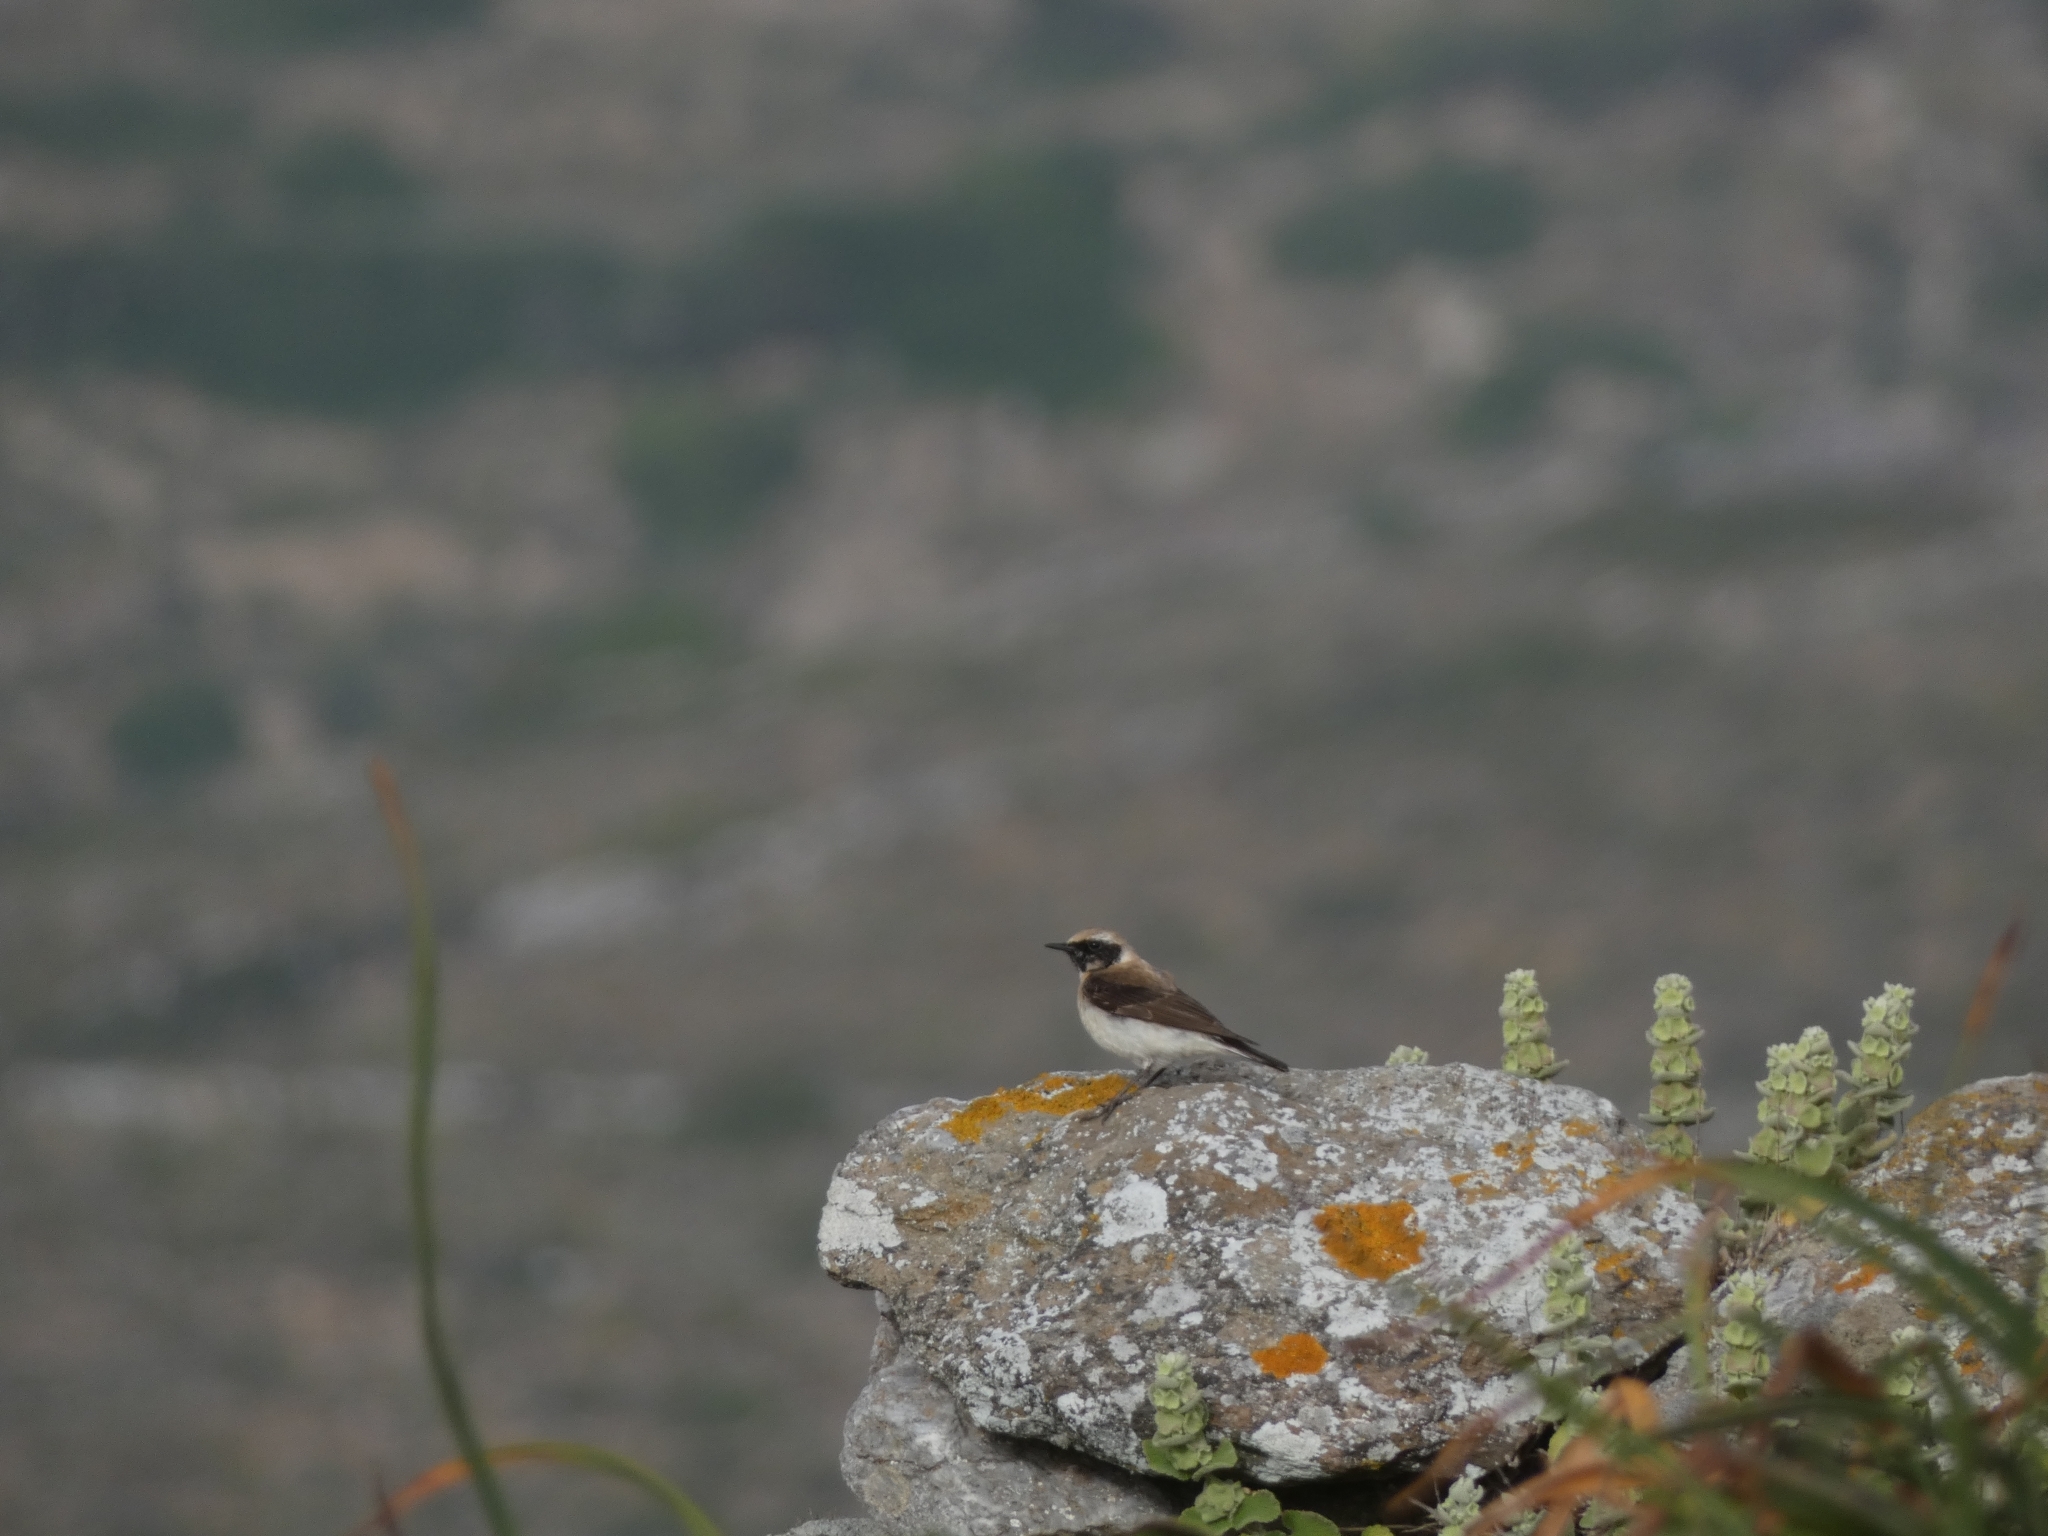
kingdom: Animalia
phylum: Chordata
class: Aves
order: Passeriformes
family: Muscicapidae
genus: Oenanthe
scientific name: Oenanthe hispanica
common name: Black-eared wheatear
